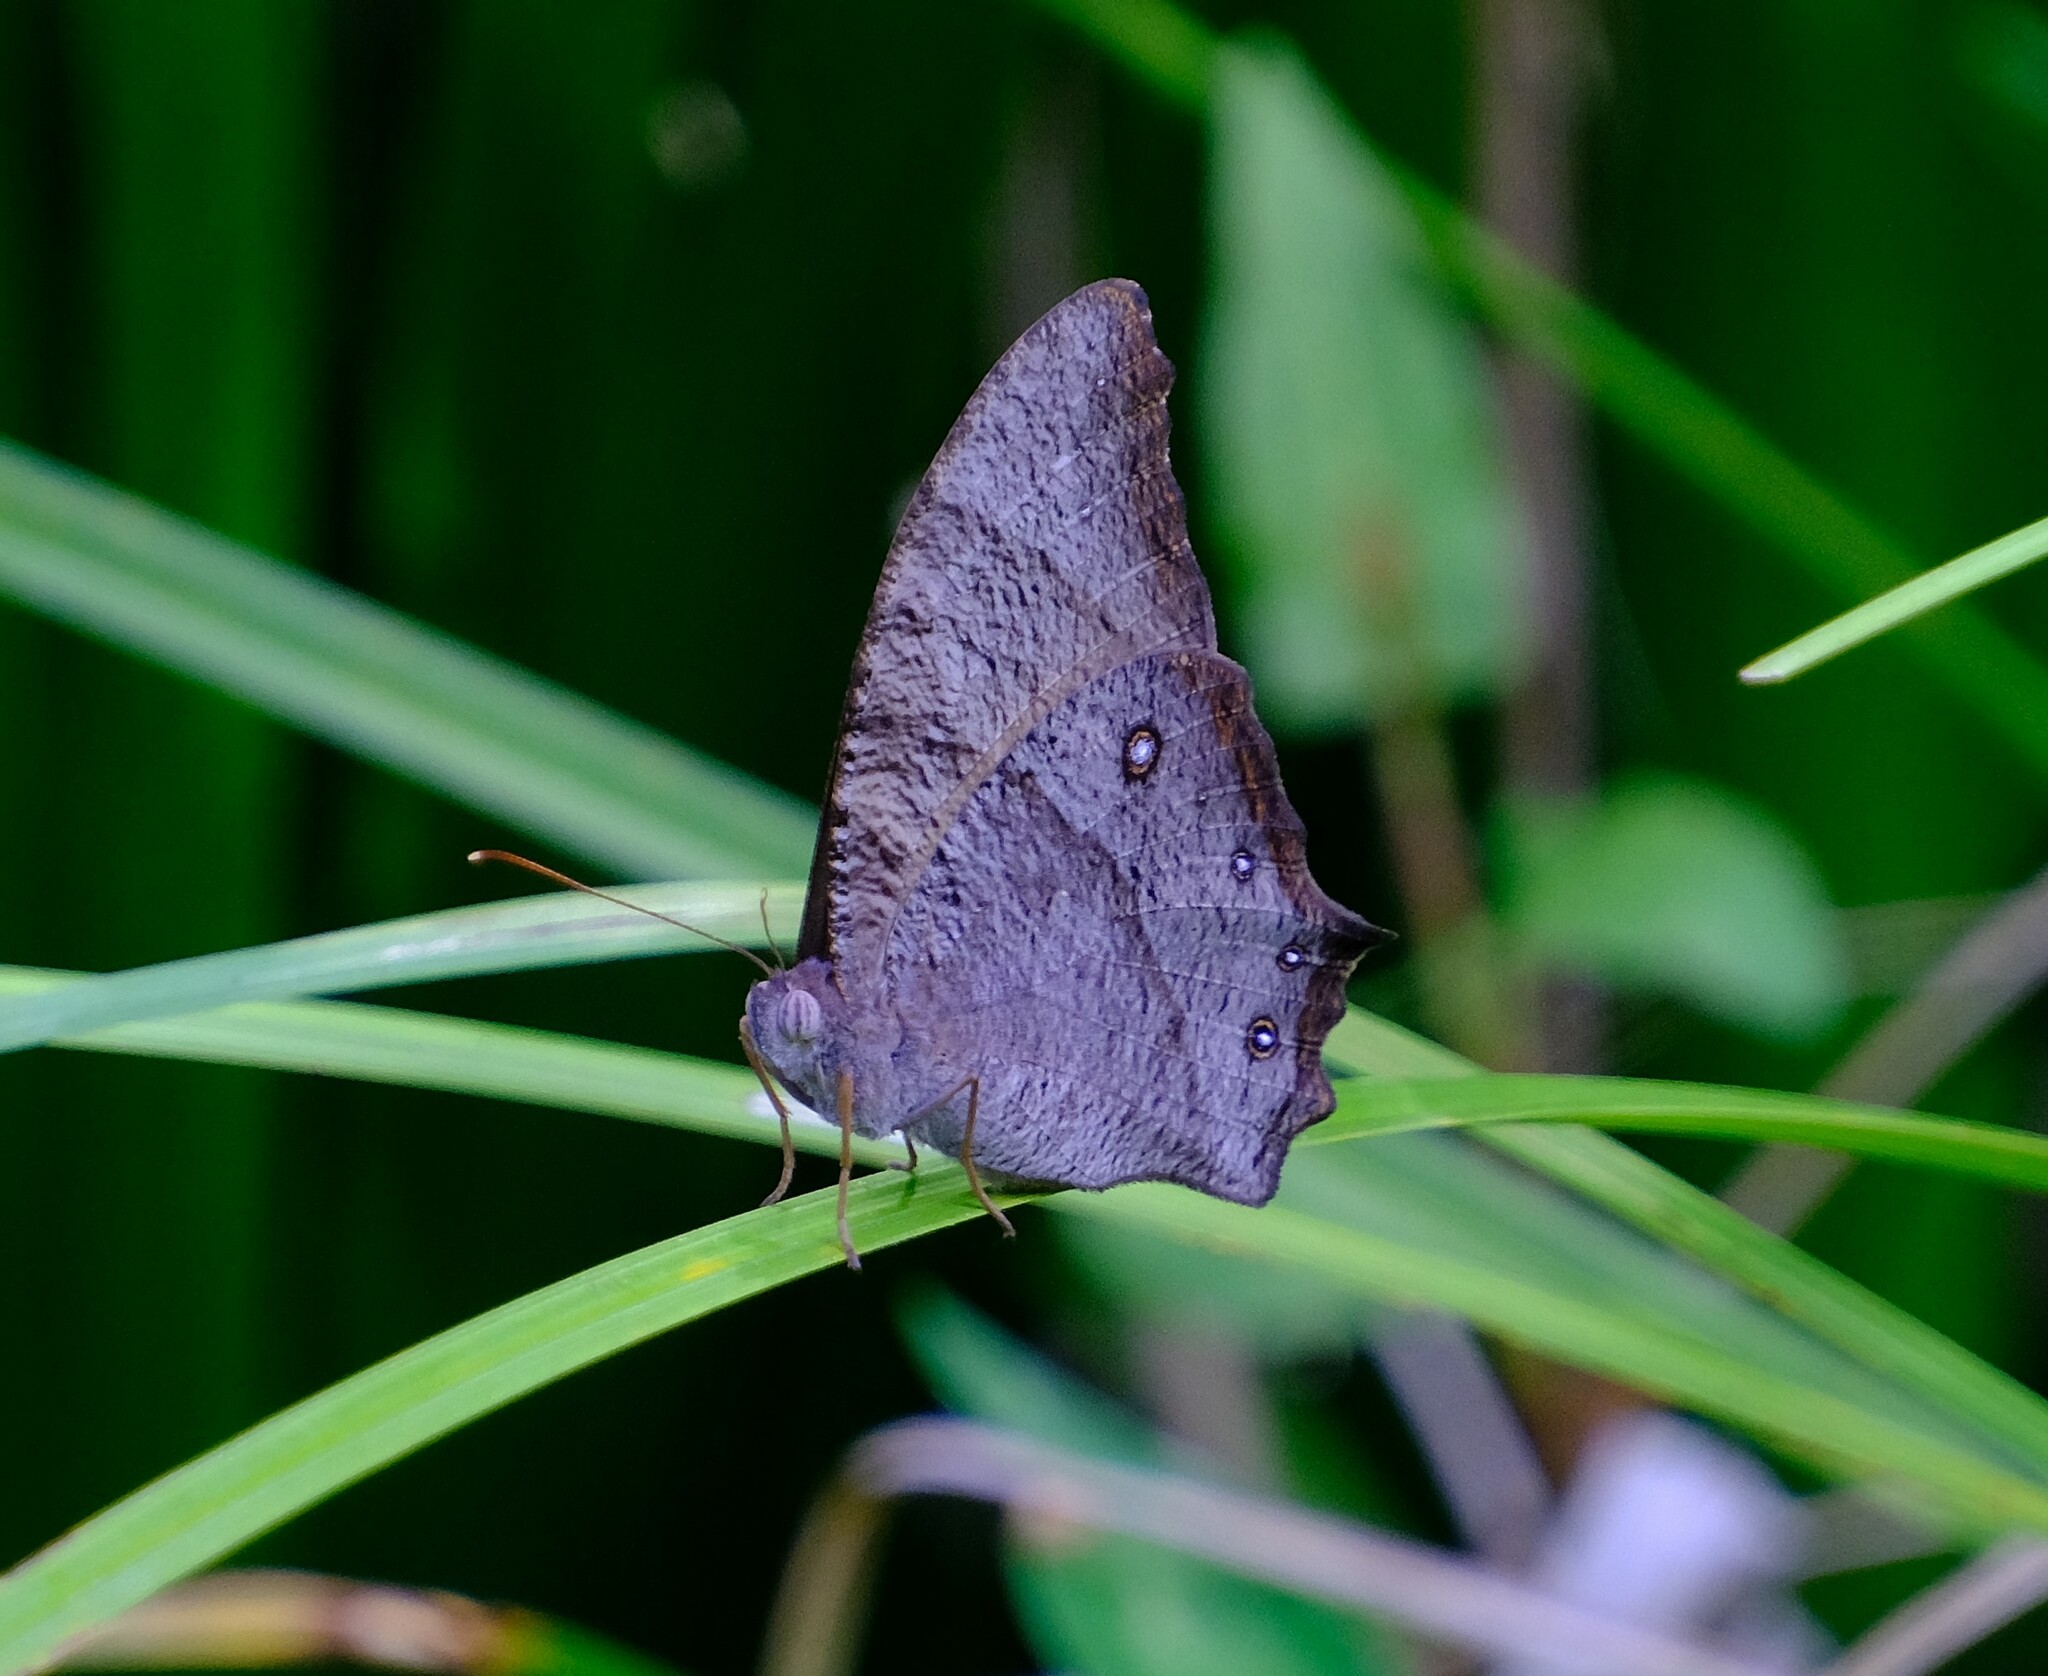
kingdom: Animalia
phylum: Arthropoda
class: Insecta
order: Lepidoptera
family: Nymphalidae
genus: Melanitis
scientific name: Melanitis leda
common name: Twilight brown
